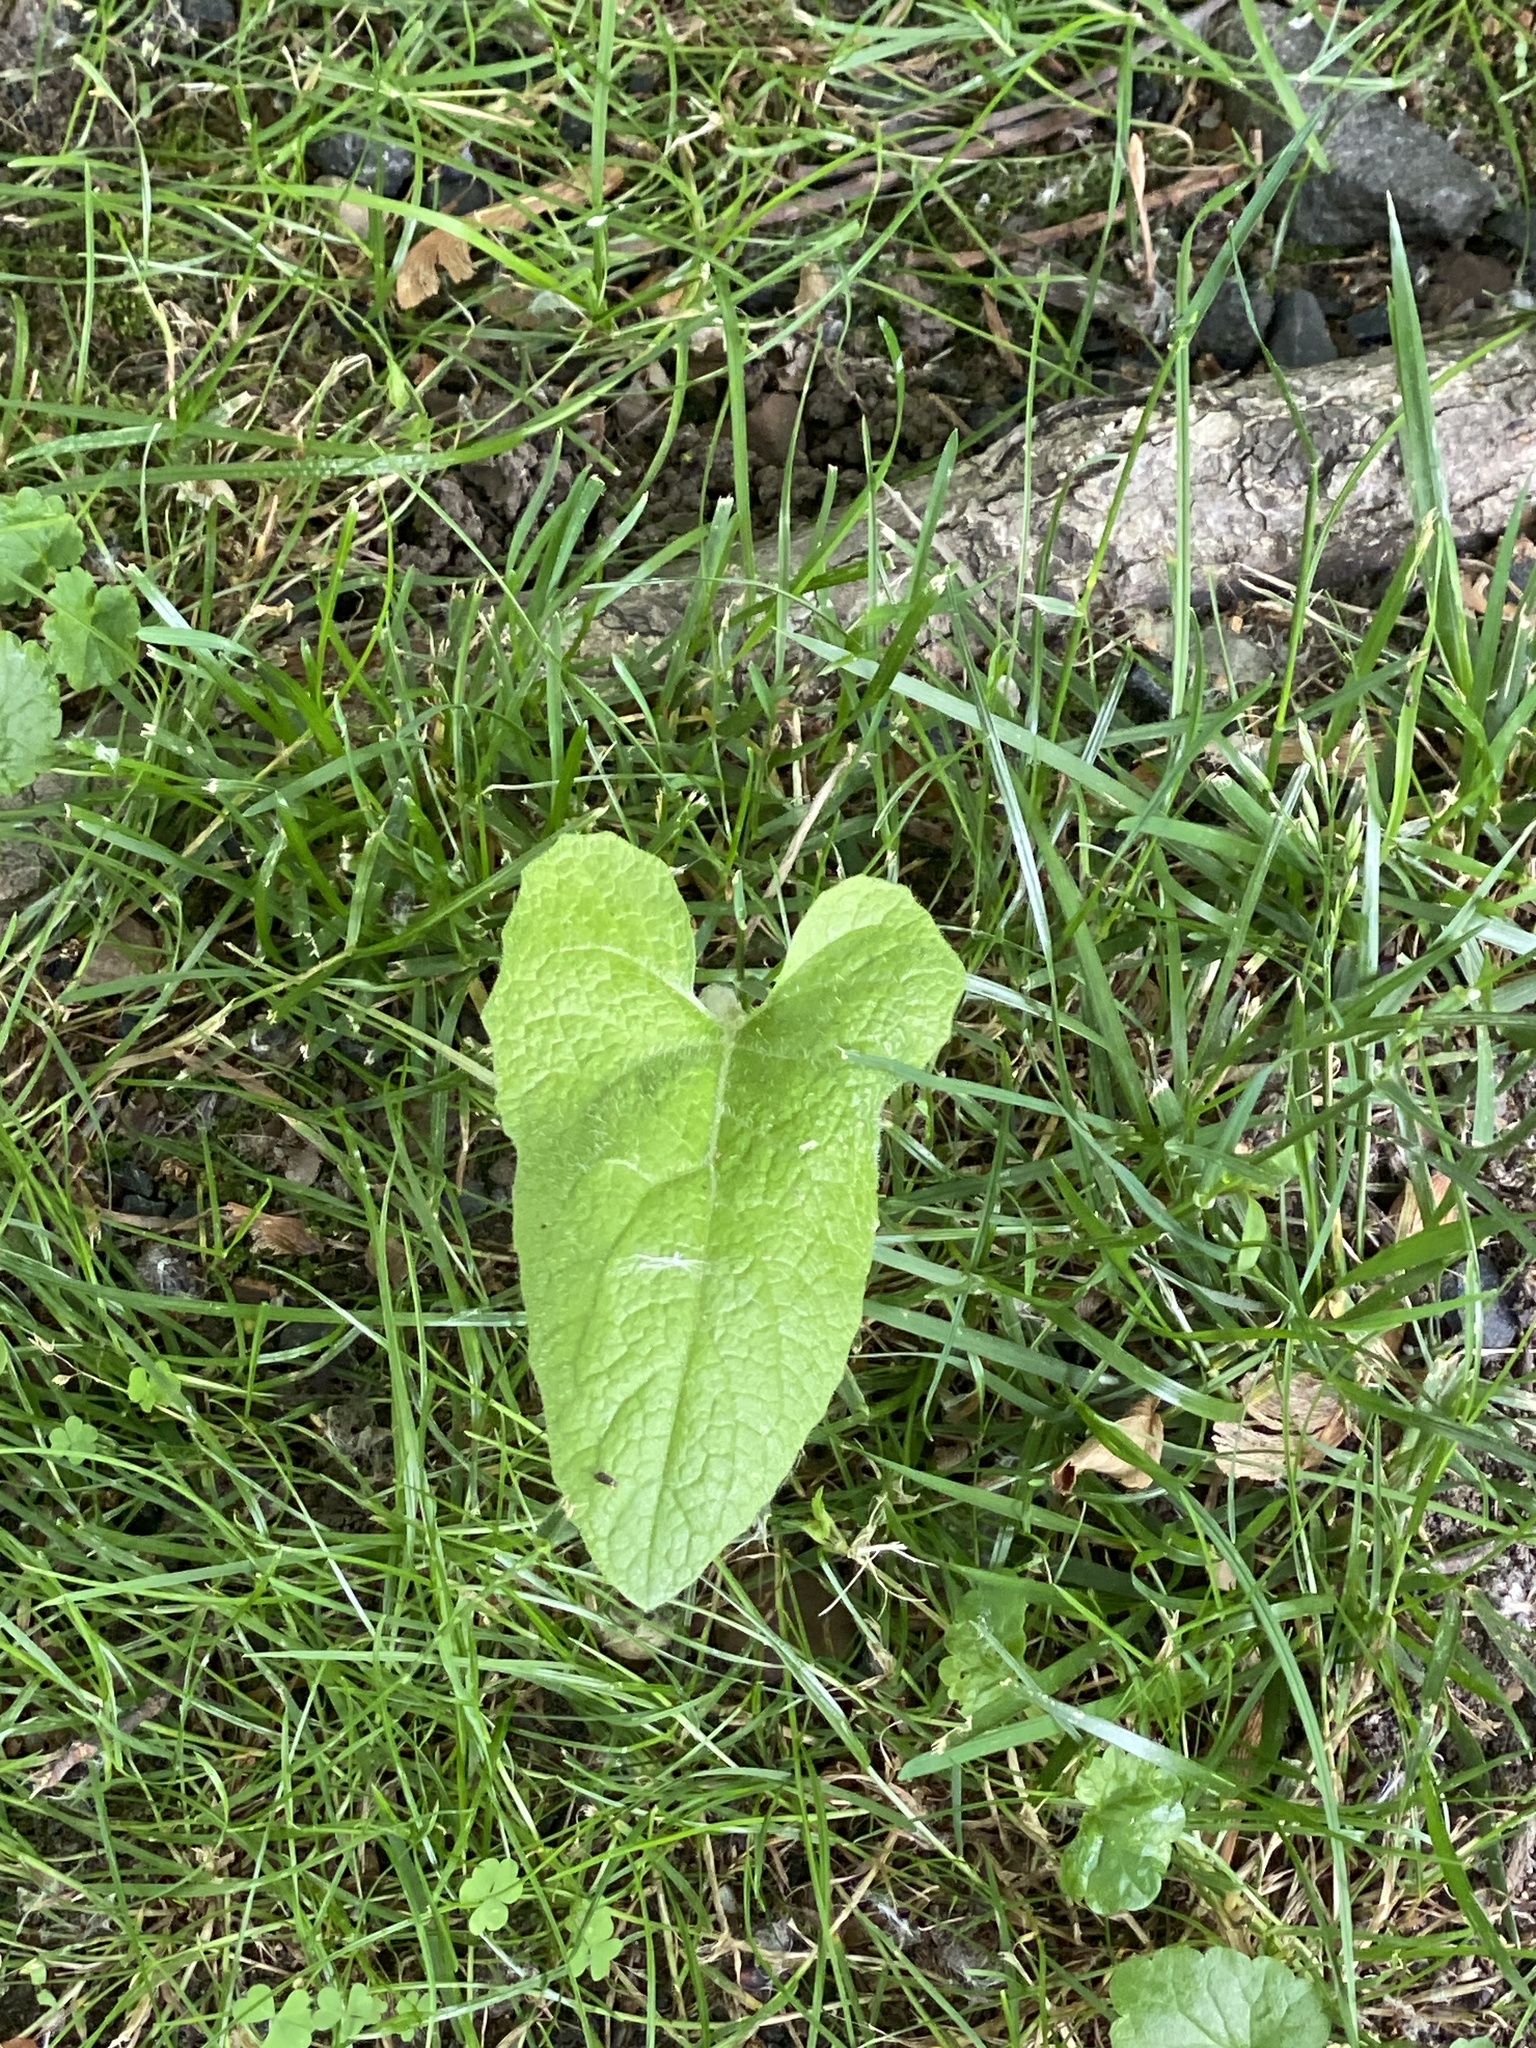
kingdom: Animalia
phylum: Arthropoda
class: Insecta
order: Hemiptera
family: Fulgoridae
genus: Lycorma
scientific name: Lycorma delicatula
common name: Spotted lanternfly
